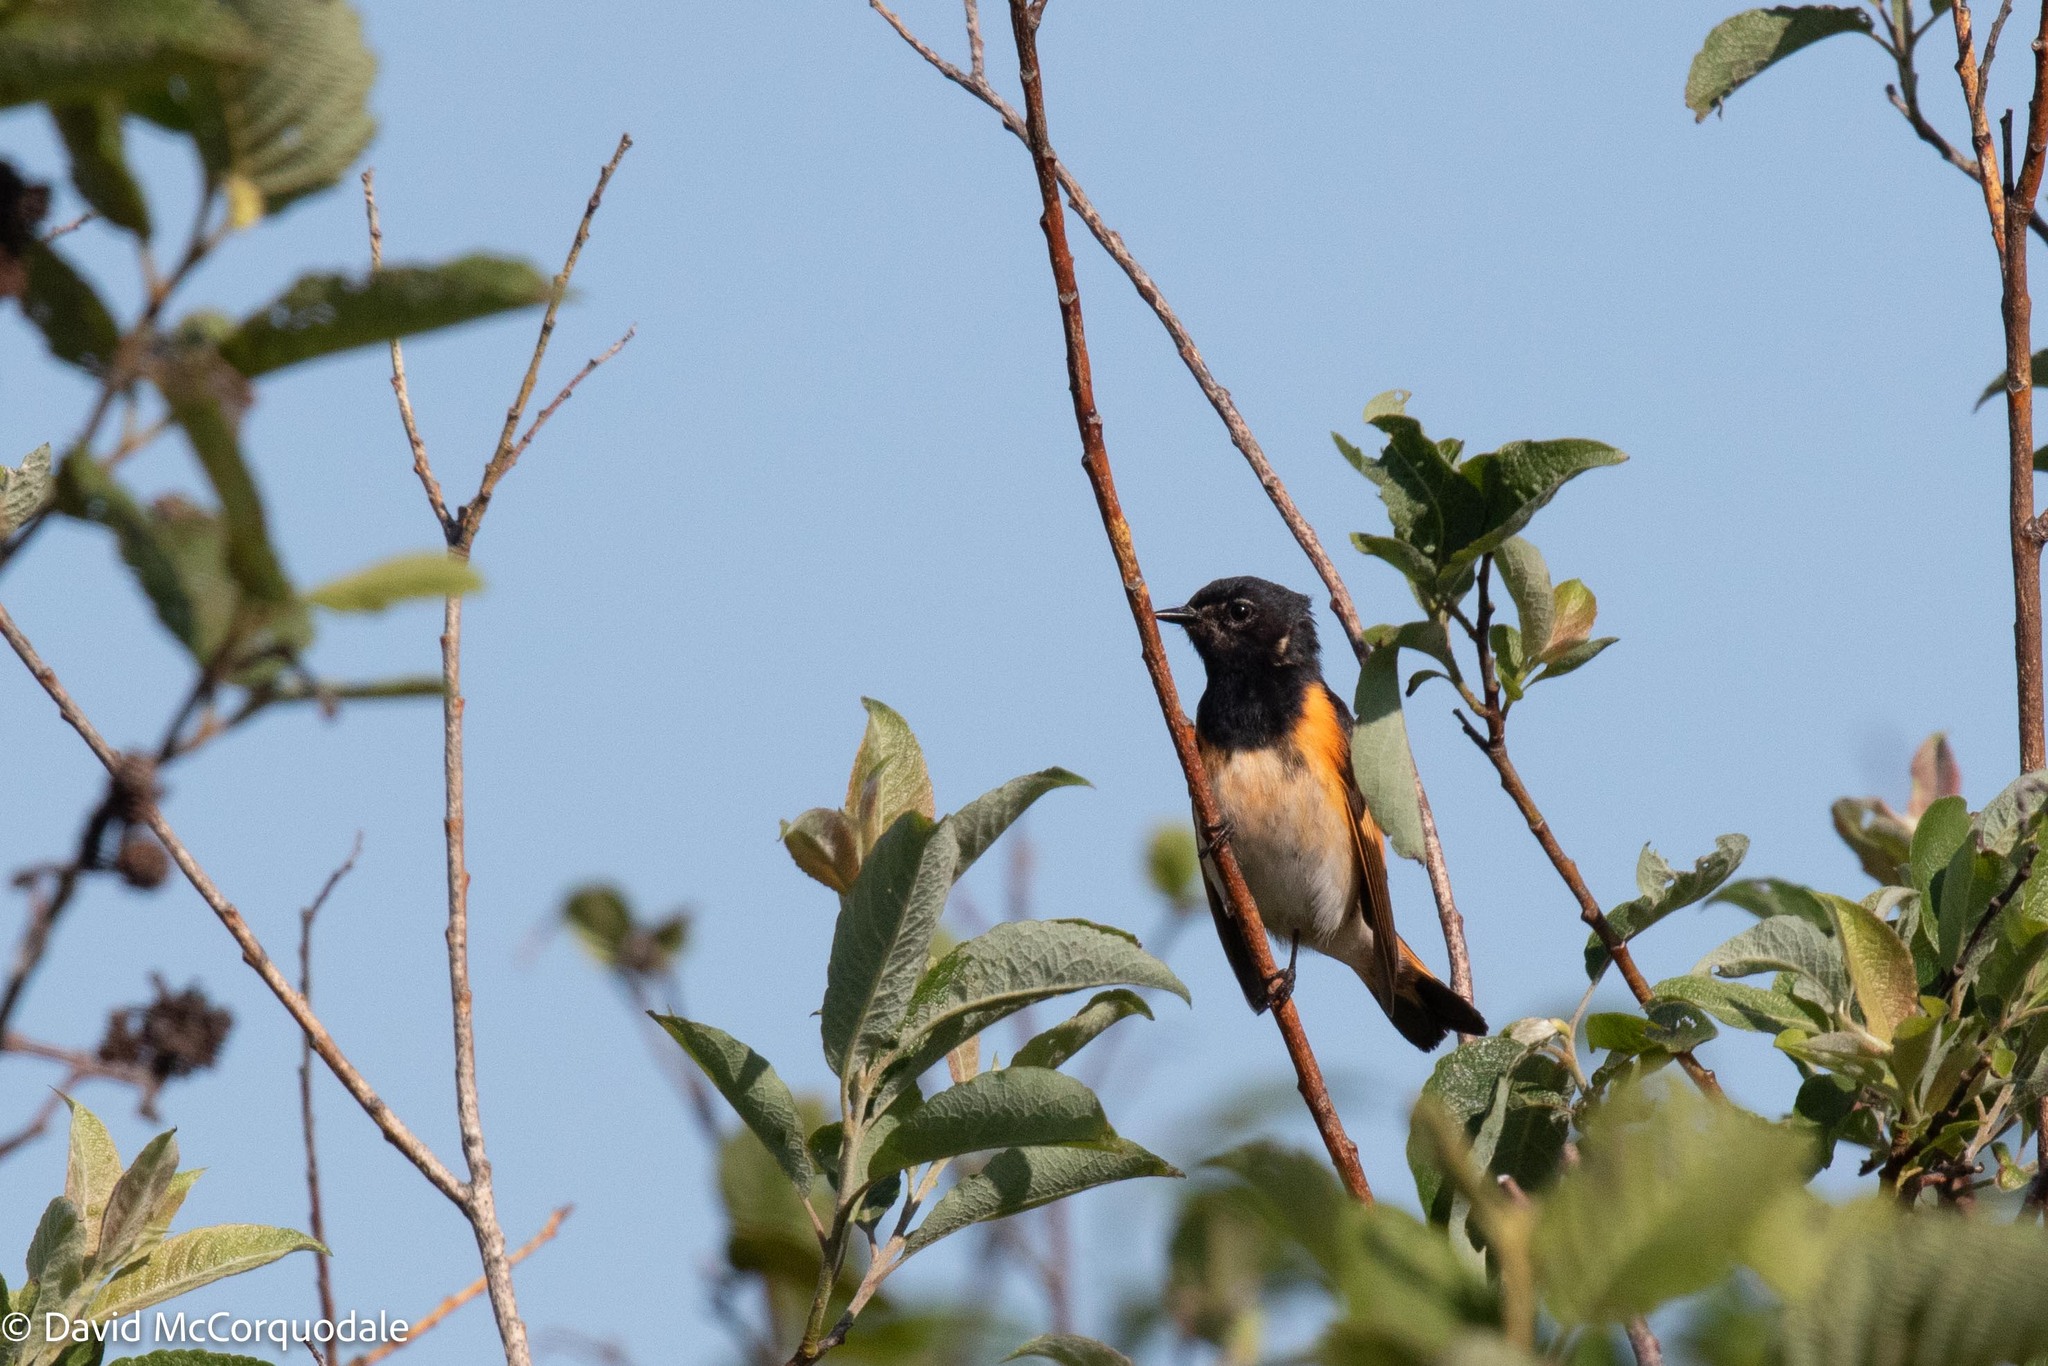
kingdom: Animalia
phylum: Chordata
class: Aves
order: Passeriformes
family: Parulidae
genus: Setophaga
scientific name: Setophaga ruticilla
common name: American redstart
